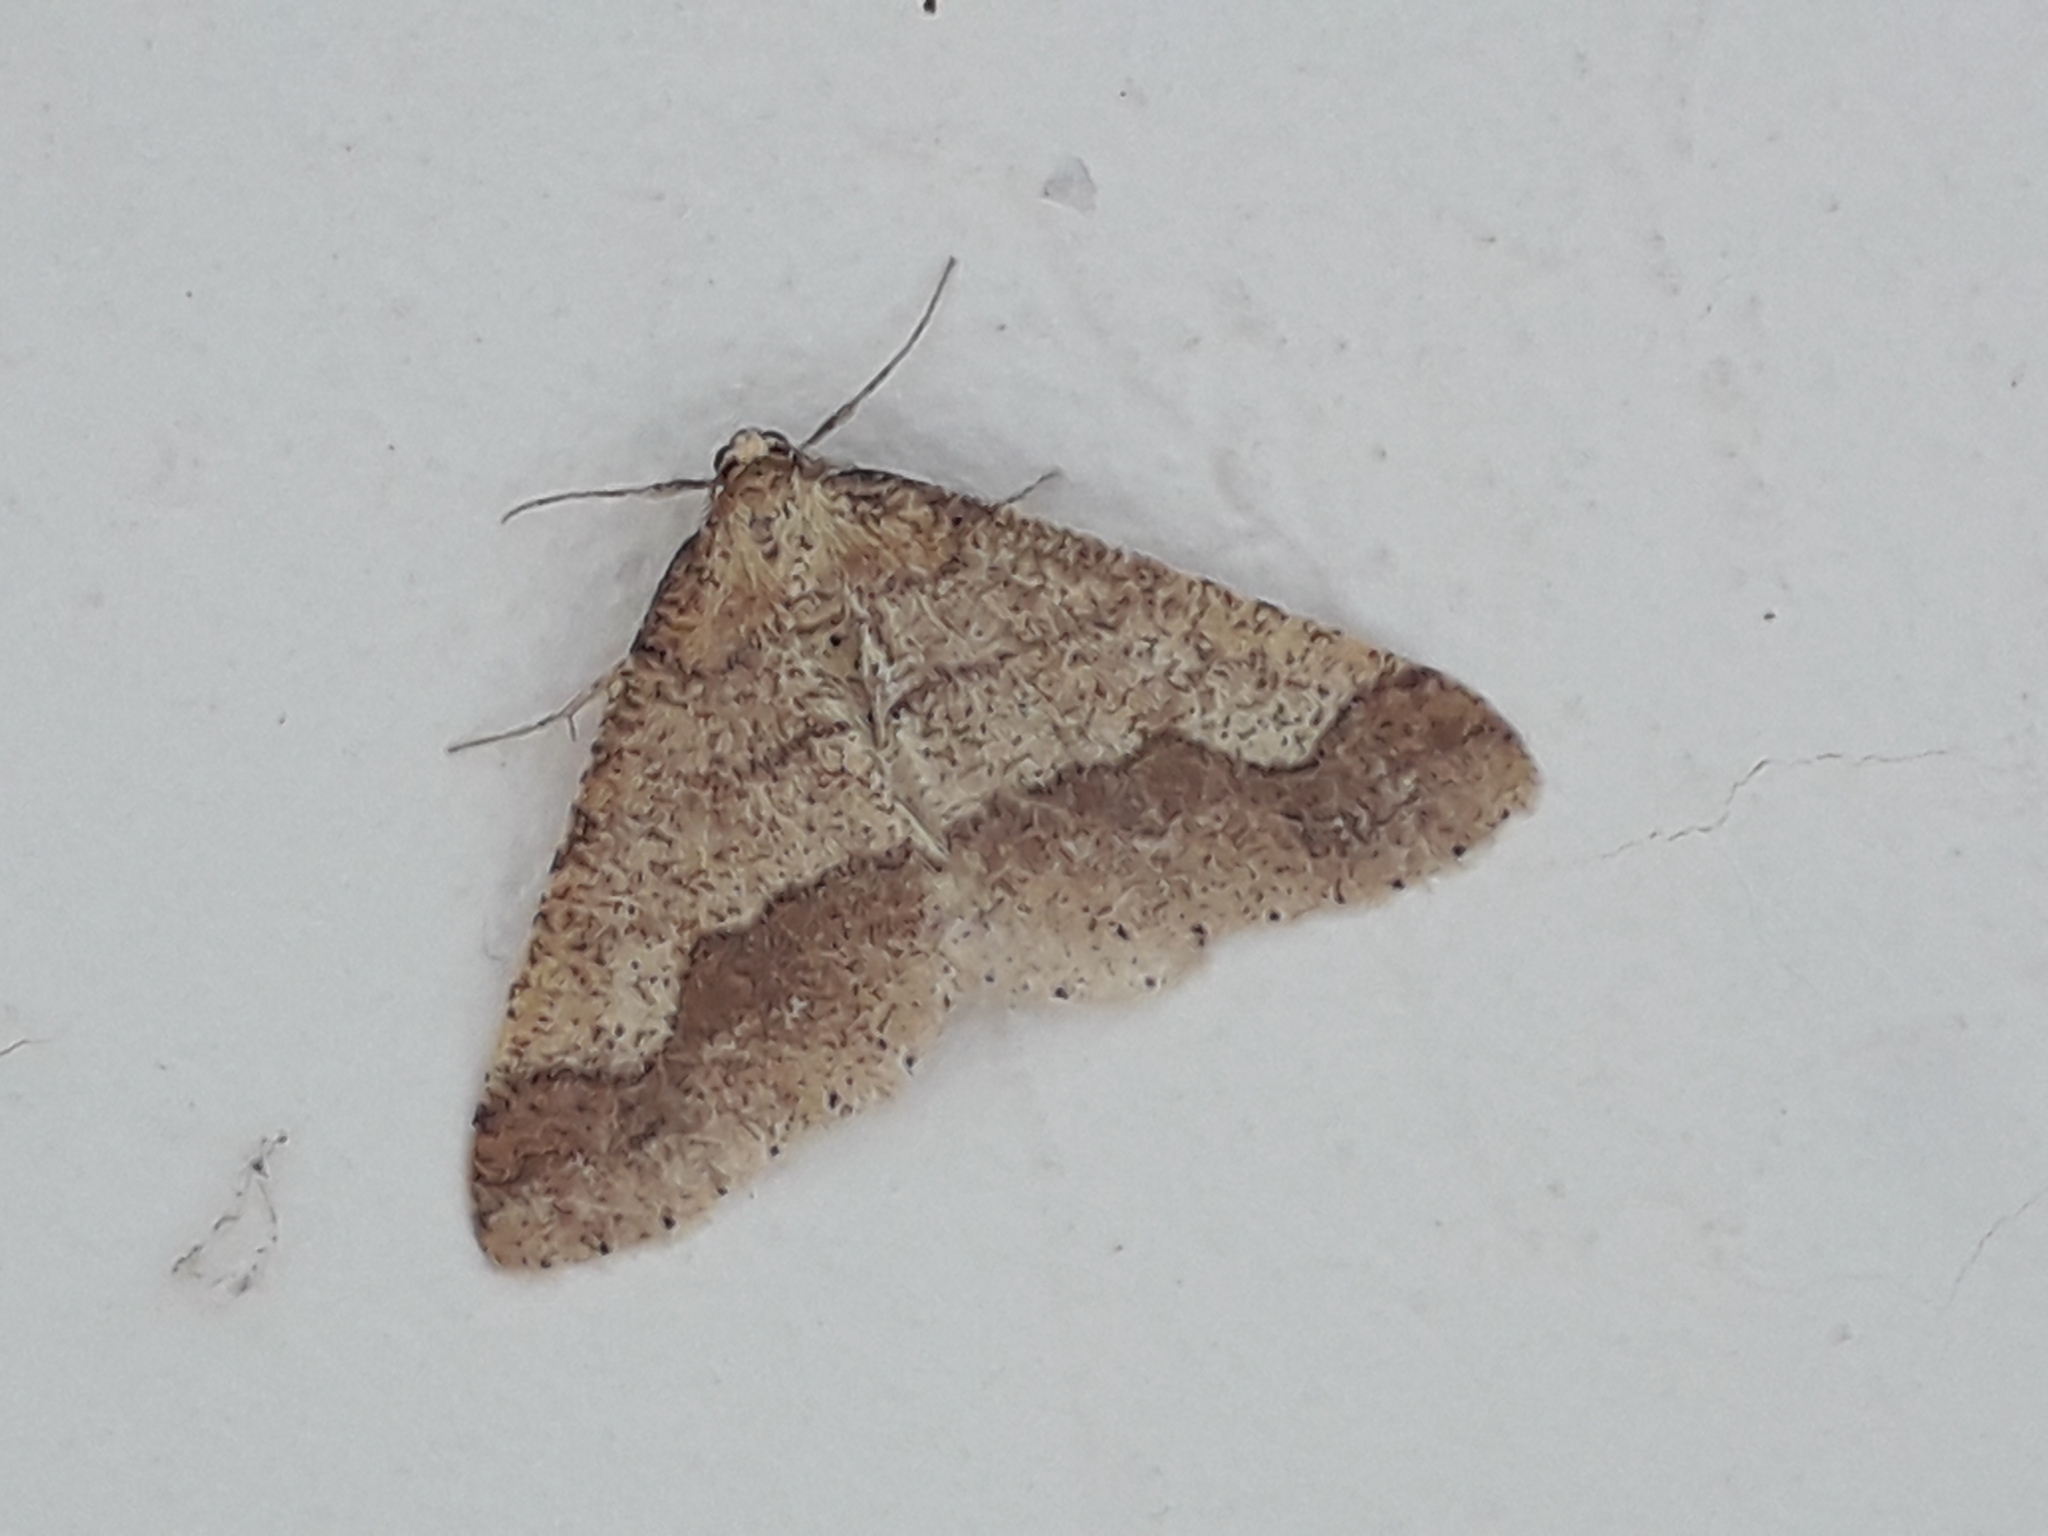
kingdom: Animalia
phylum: Arthropoda
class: Insecta
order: Lepidoptera
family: Geometridae
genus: Agriopis
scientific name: Agriopis marginaria
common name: Dotted border
